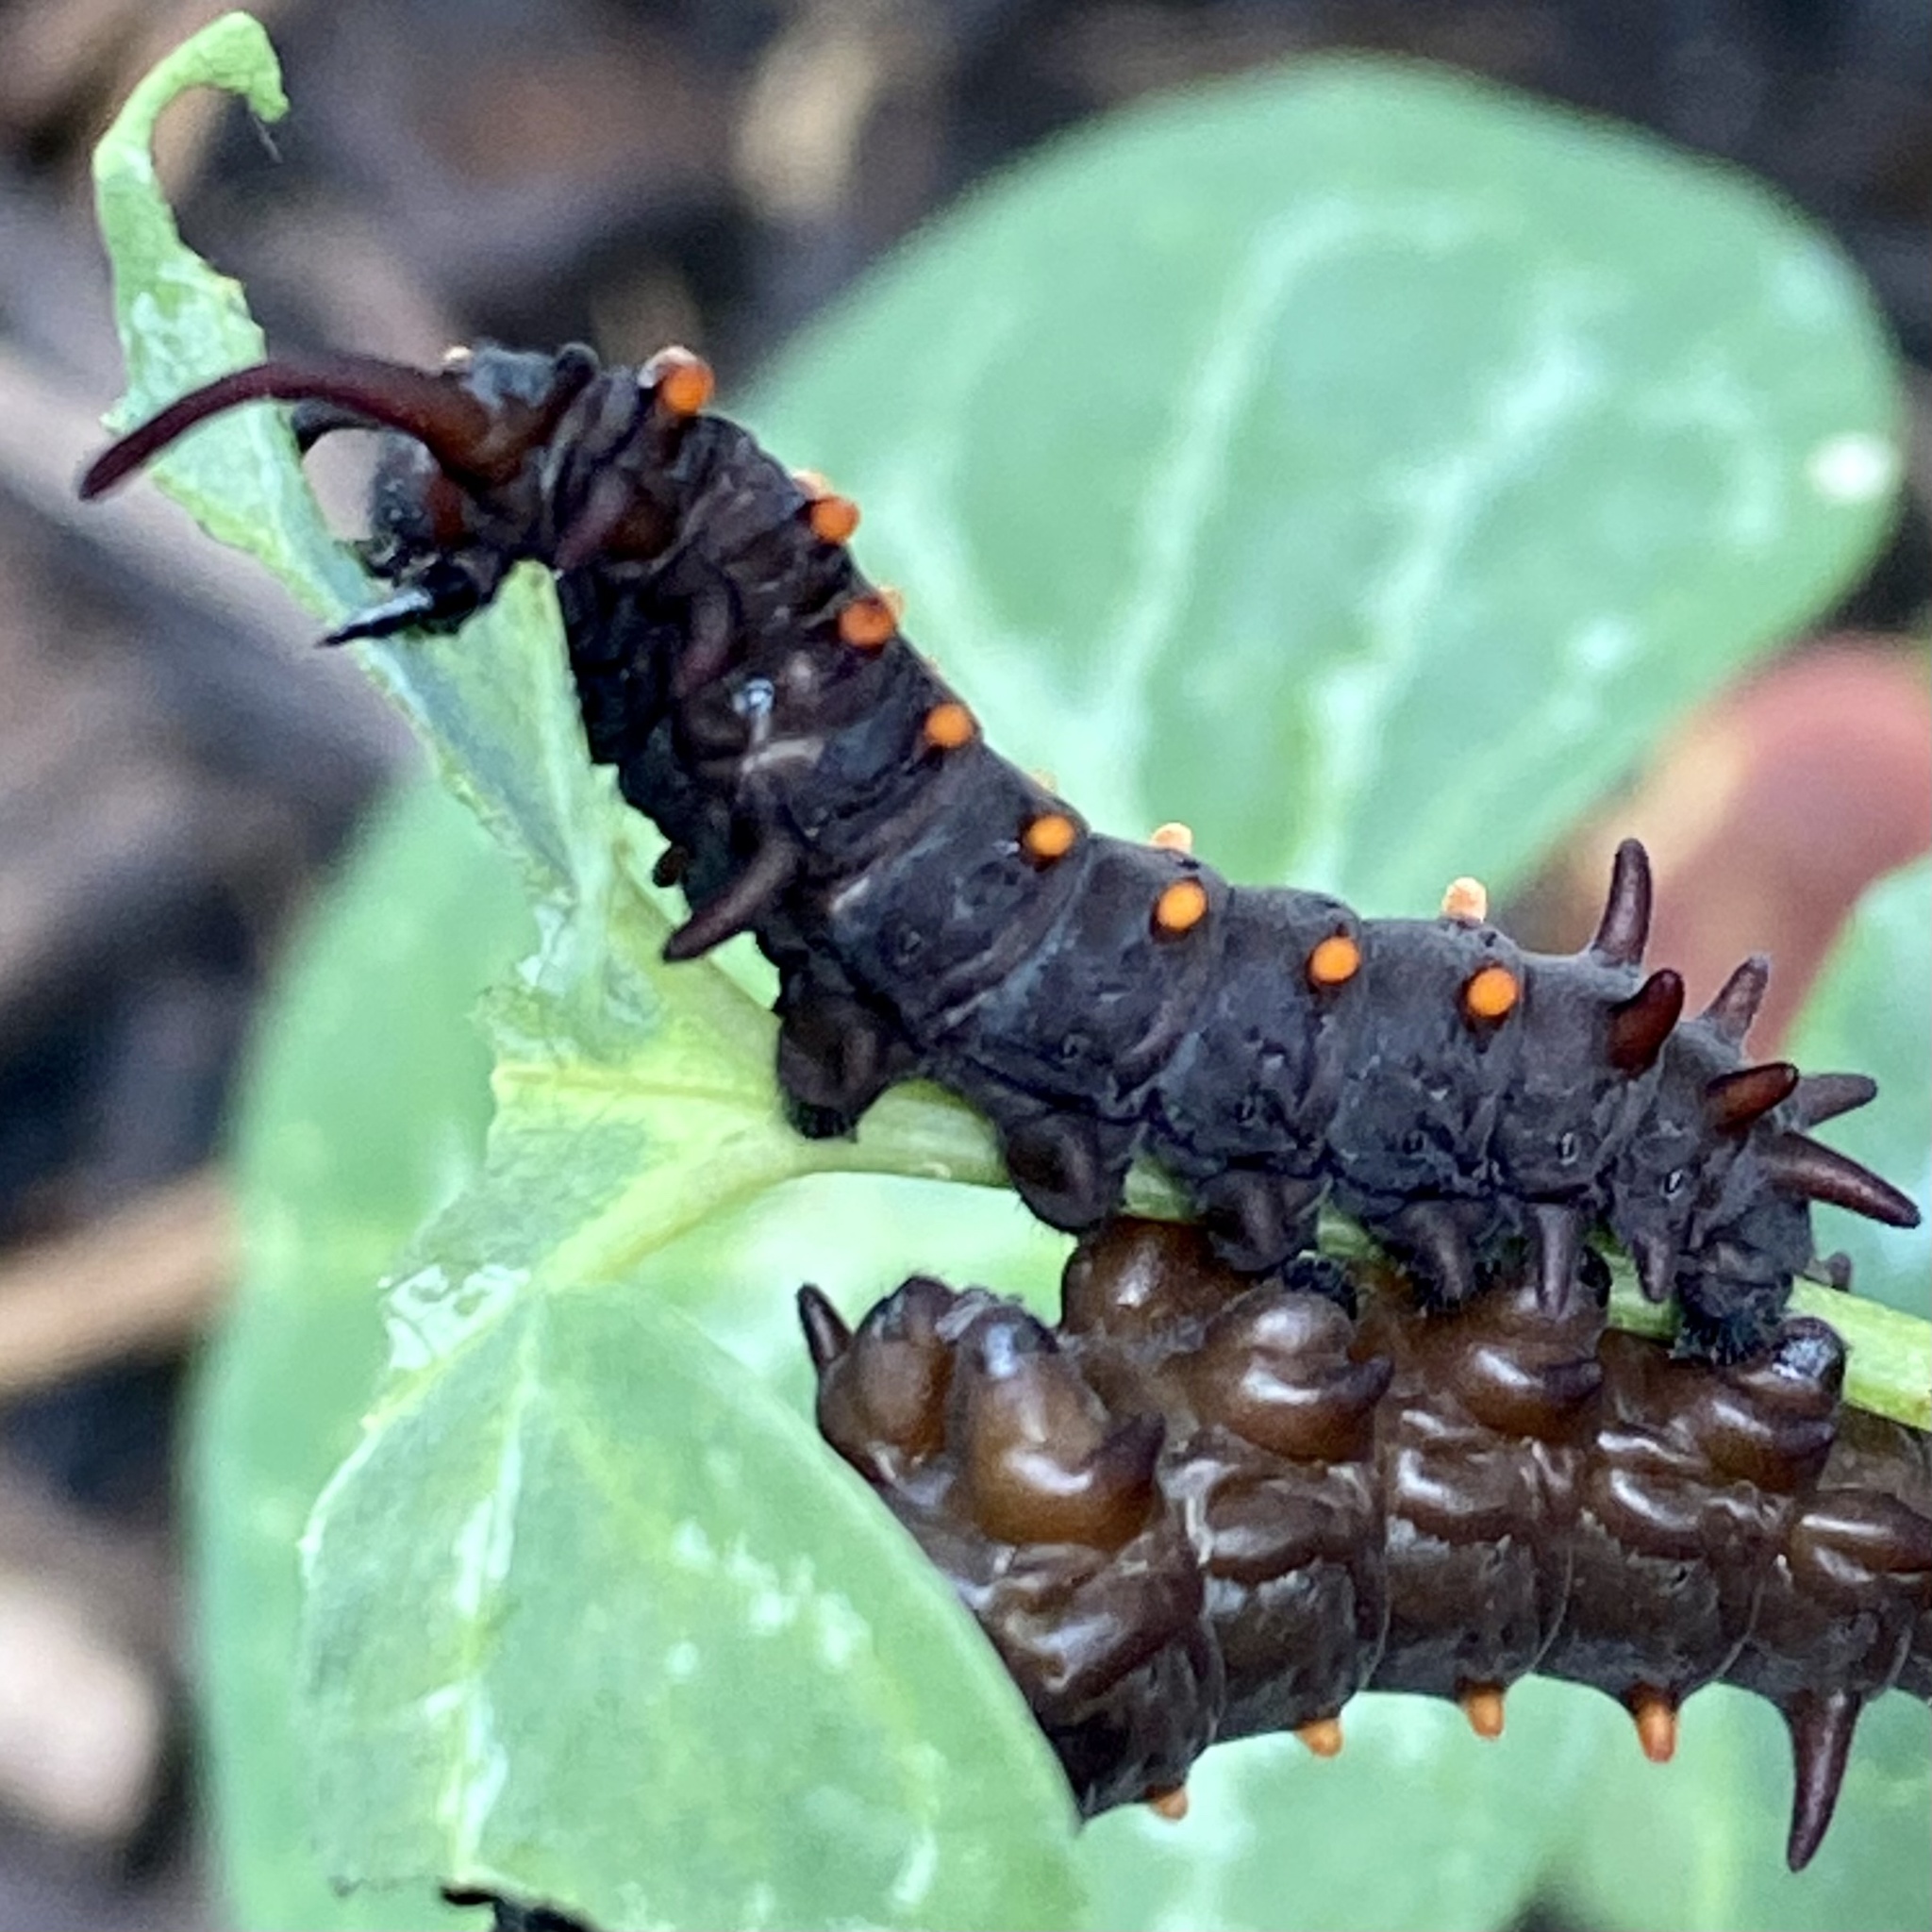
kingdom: Animalia
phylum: Arthropoda
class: Insecta
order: Lepidoptera
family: Papilionidae
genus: Battus
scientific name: Battus philenor
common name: Pipevine swallowtail
